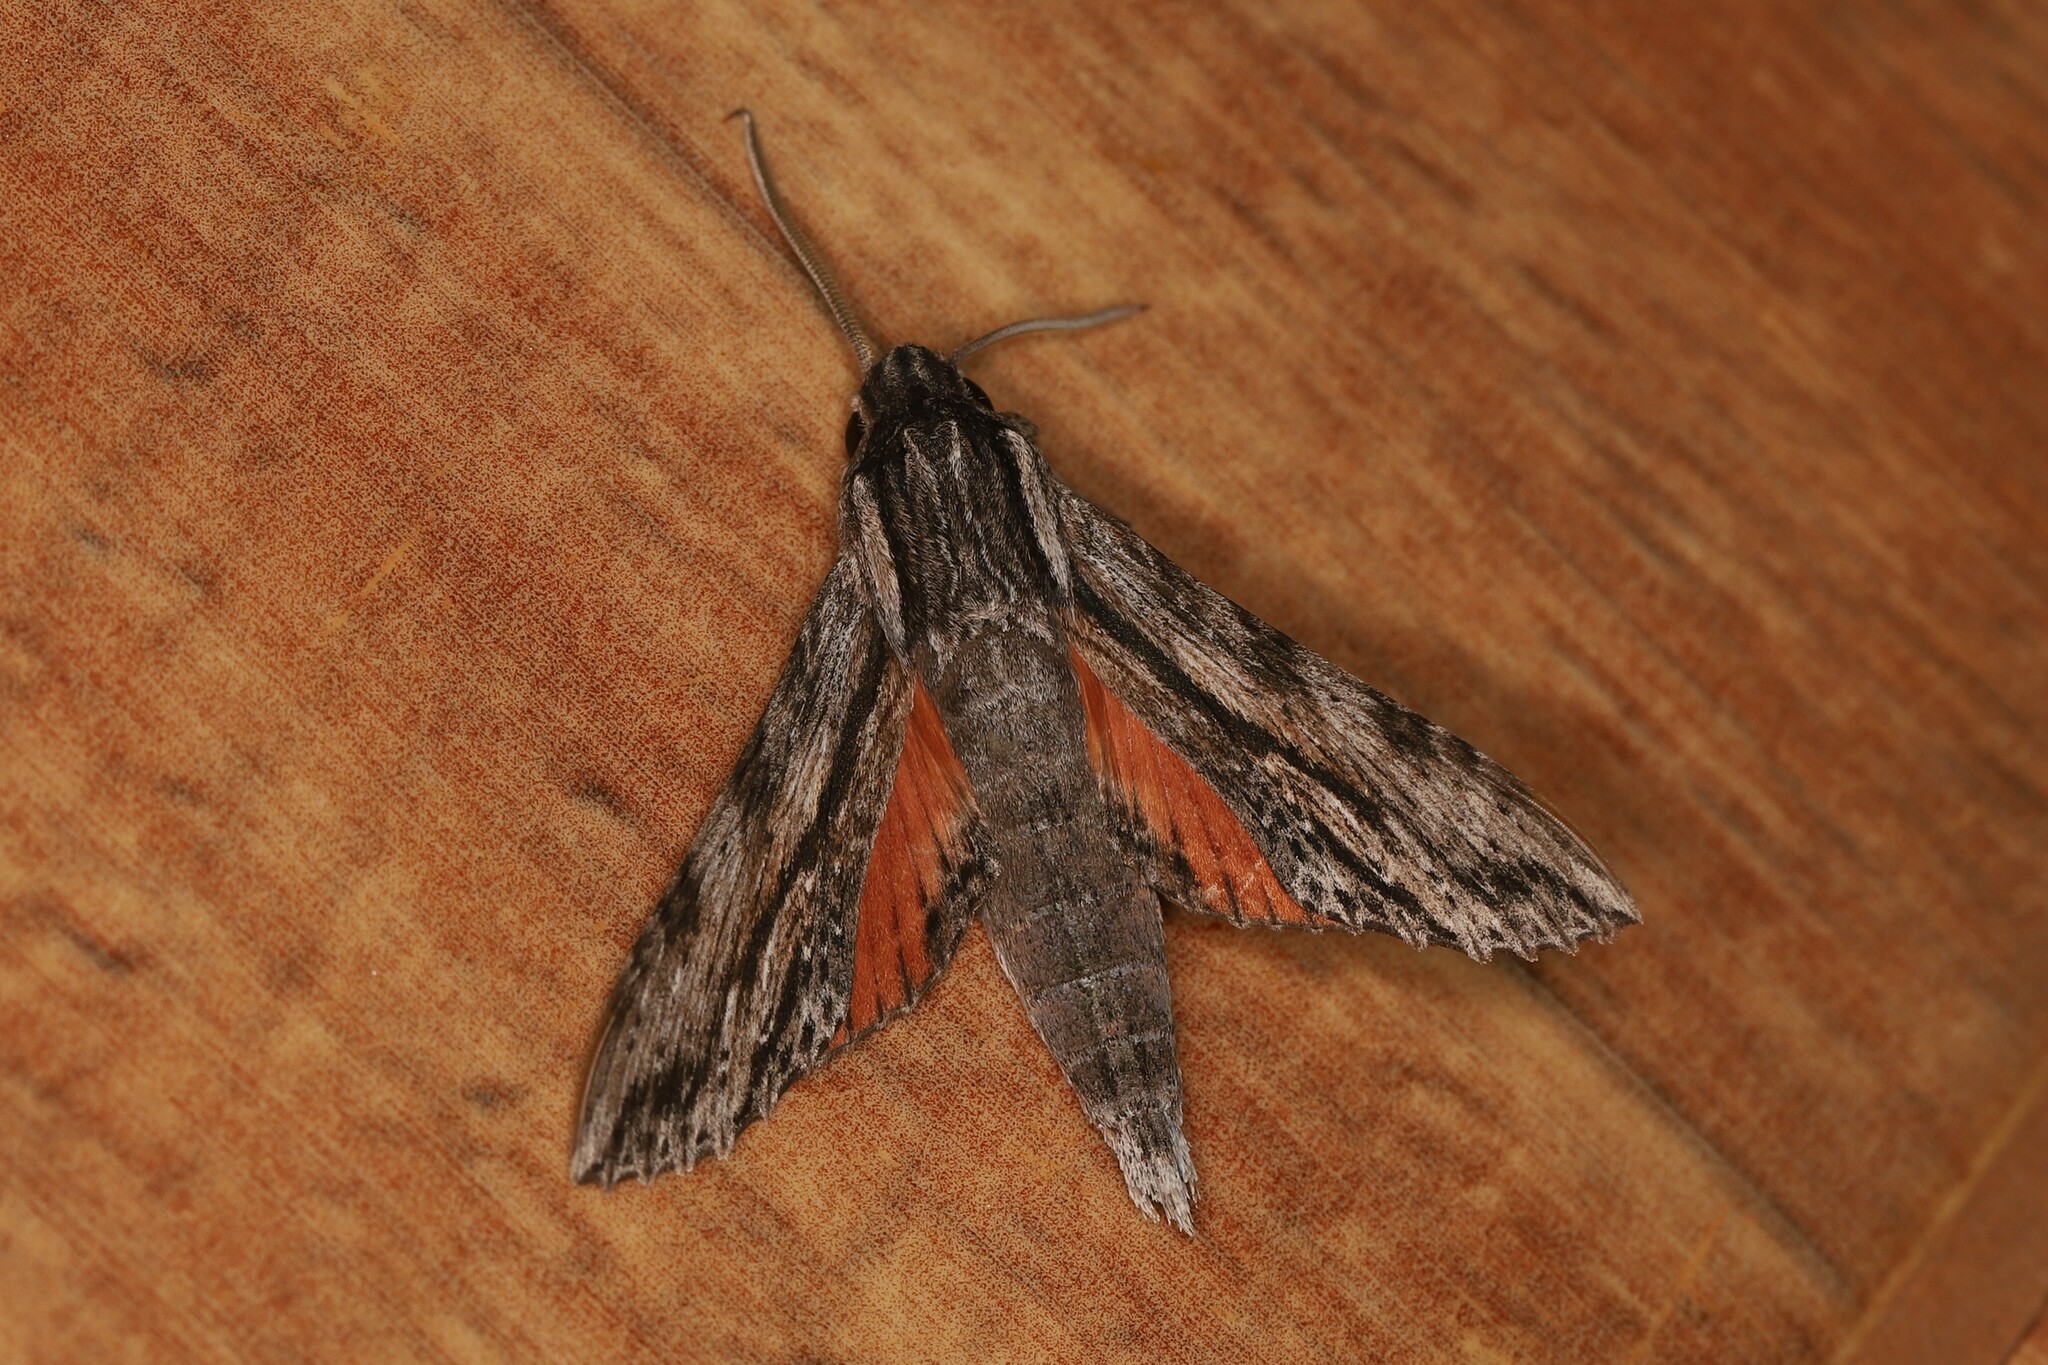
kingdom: Animalia
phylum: Arthropoda
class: Insecta
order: Lepidoptera
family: Sphingidae
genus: Erinnyis
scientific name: Erinnyis obscura
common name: Obscure sphinx
